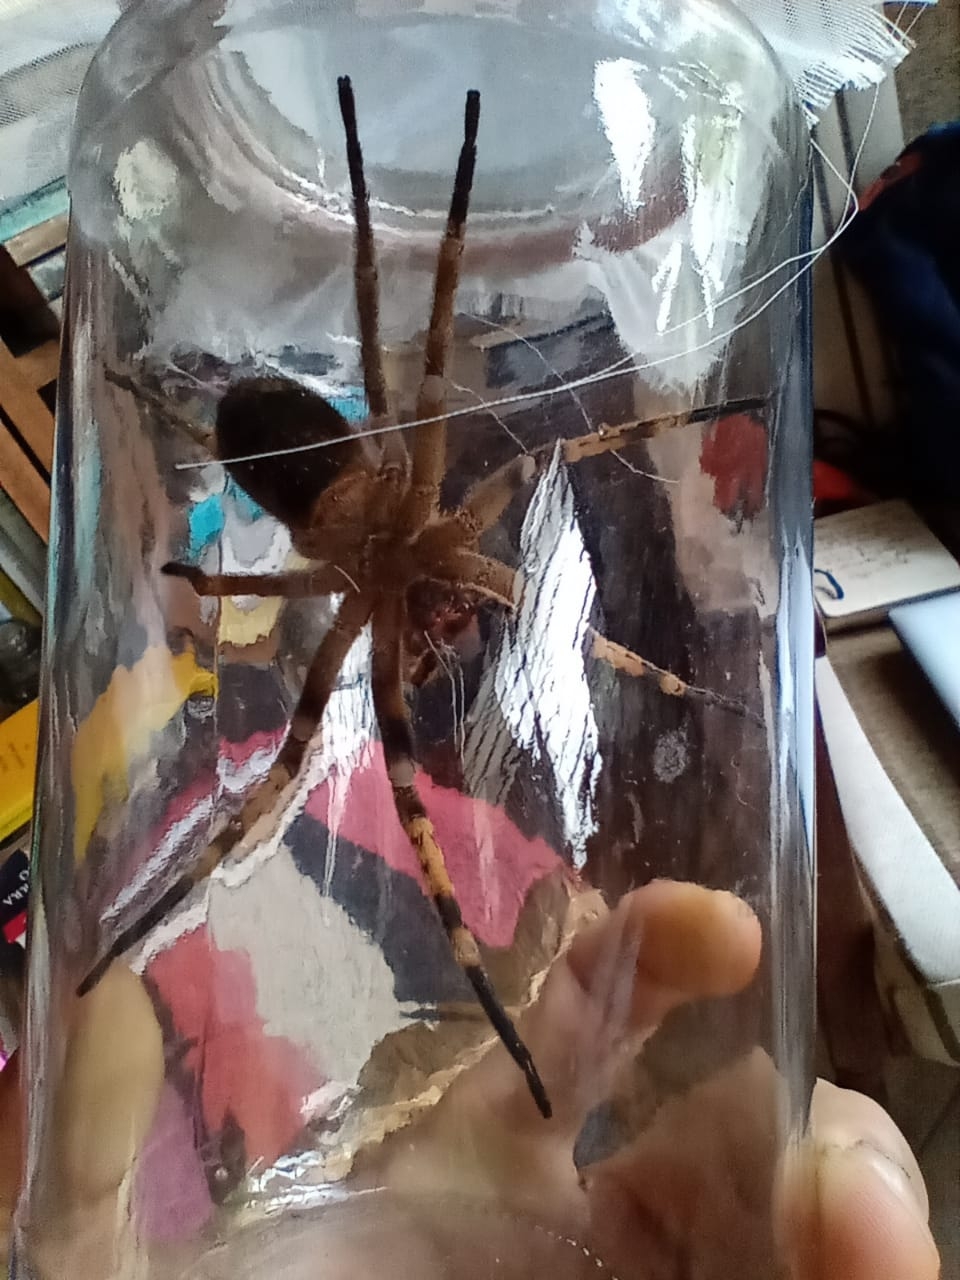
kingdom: Animalia
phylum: Arthropoda
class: Arachnida
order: Araneae
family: Ctenidae
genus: Phoneutria
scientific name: Phoneutria depilata
